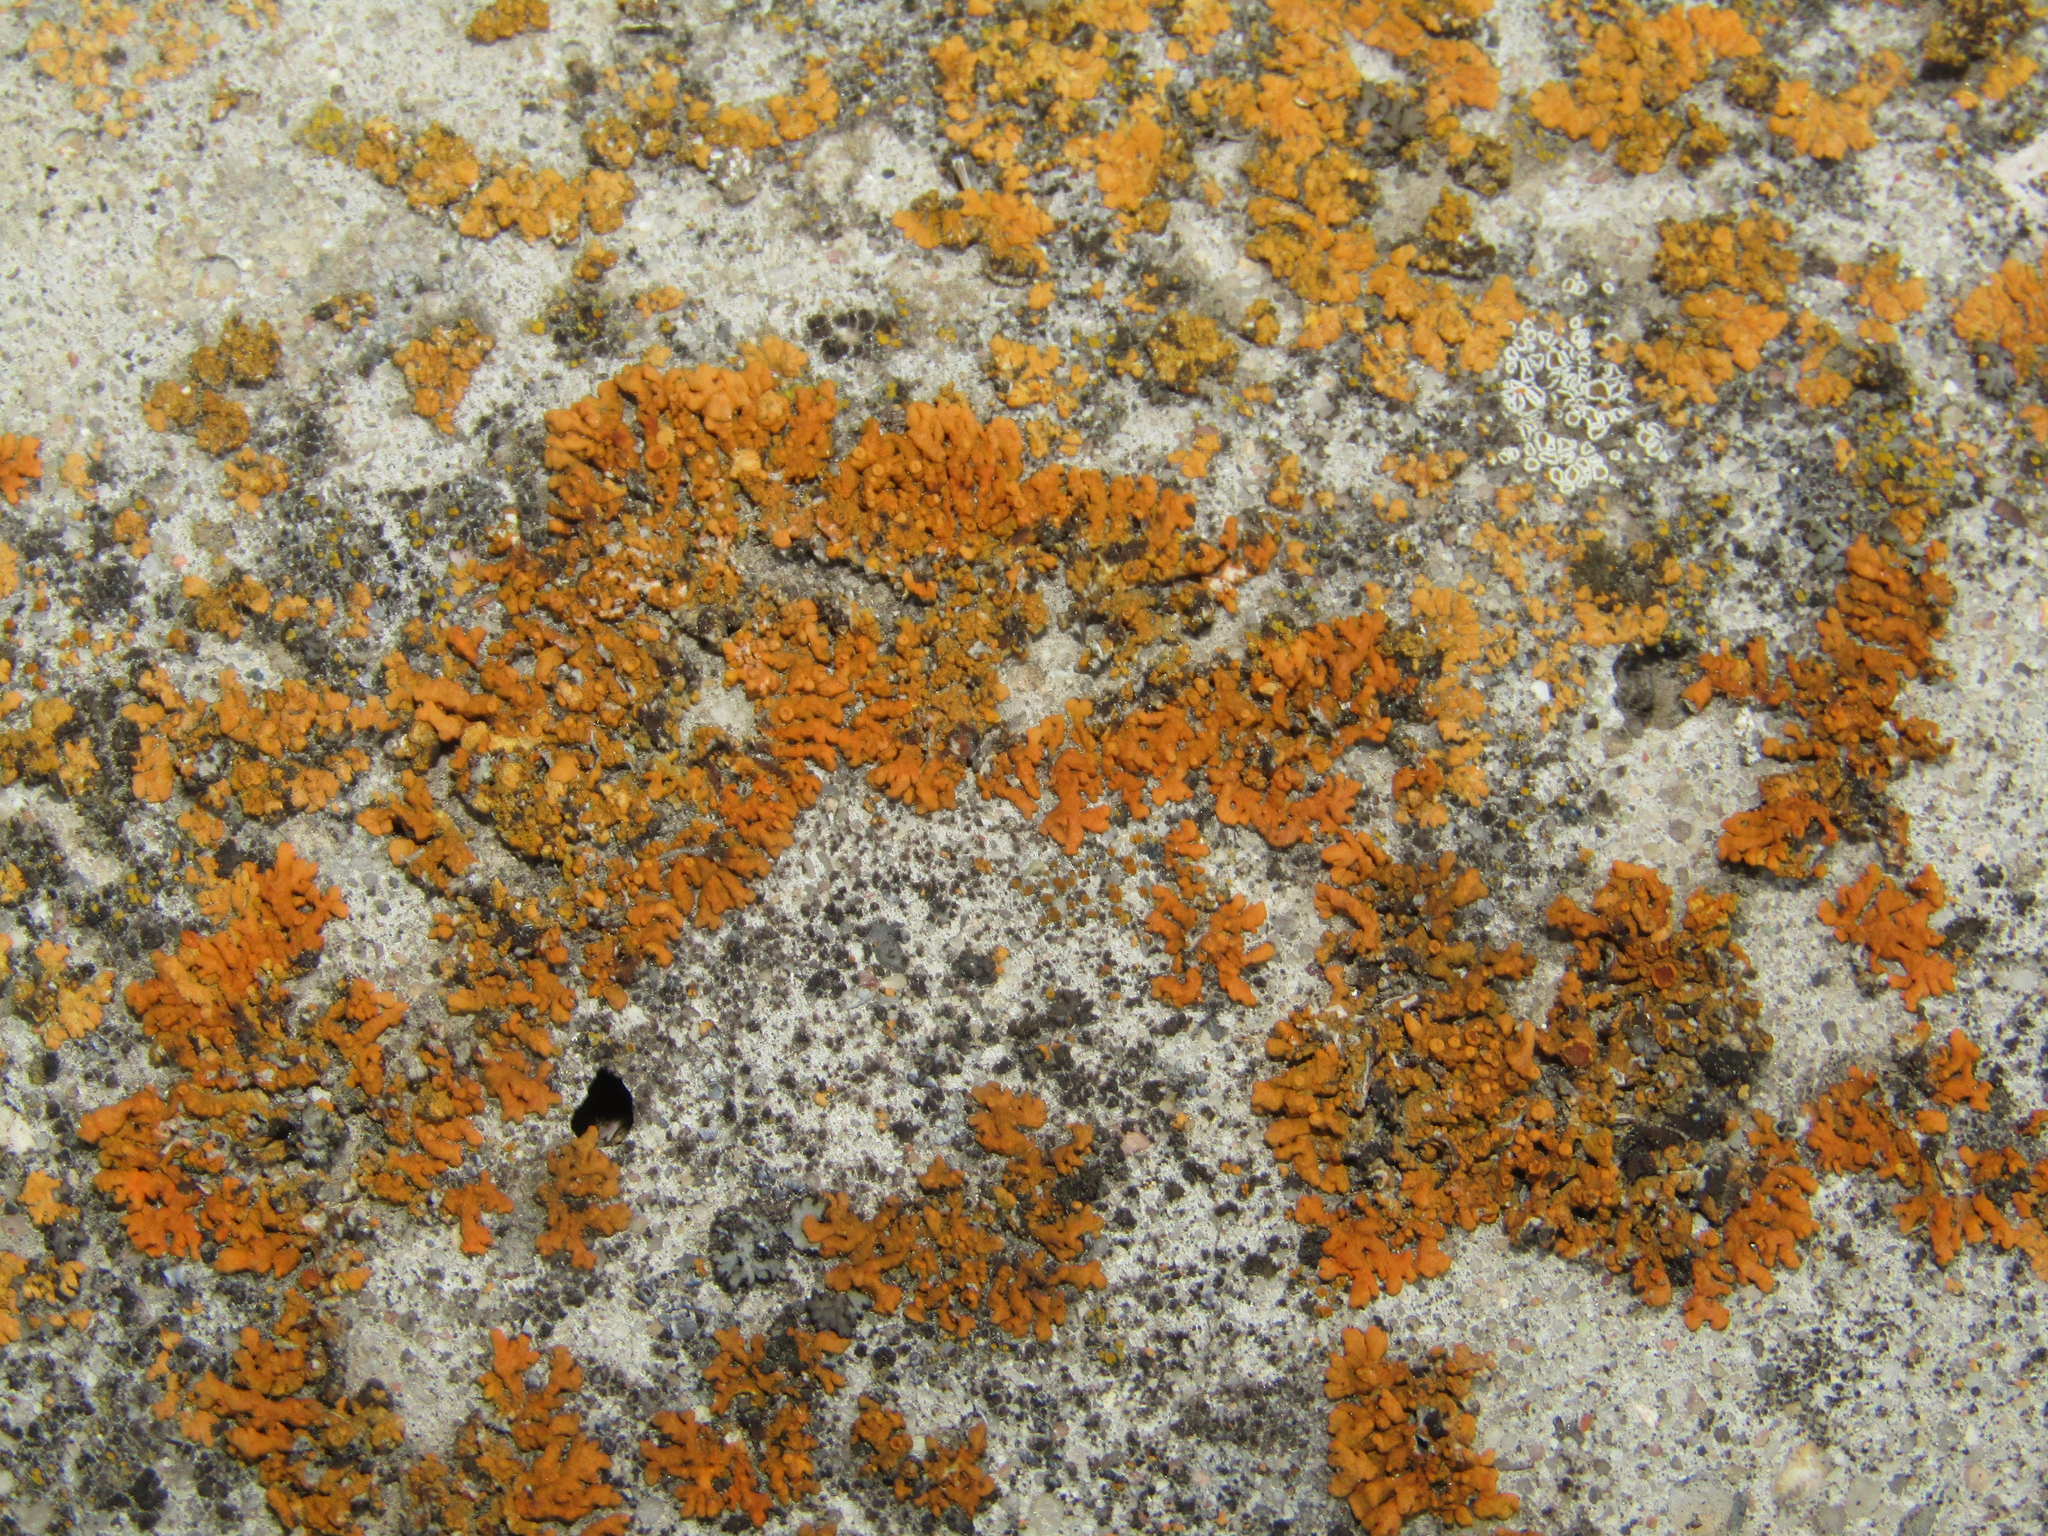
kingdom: Fungi
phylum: Ascomycota
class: Lecanoromycetes
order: Teloschistales
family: Teloschistaceae
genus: Xanthoria
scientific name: Xanthoria elegans
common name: Elegant sunburst lichen
